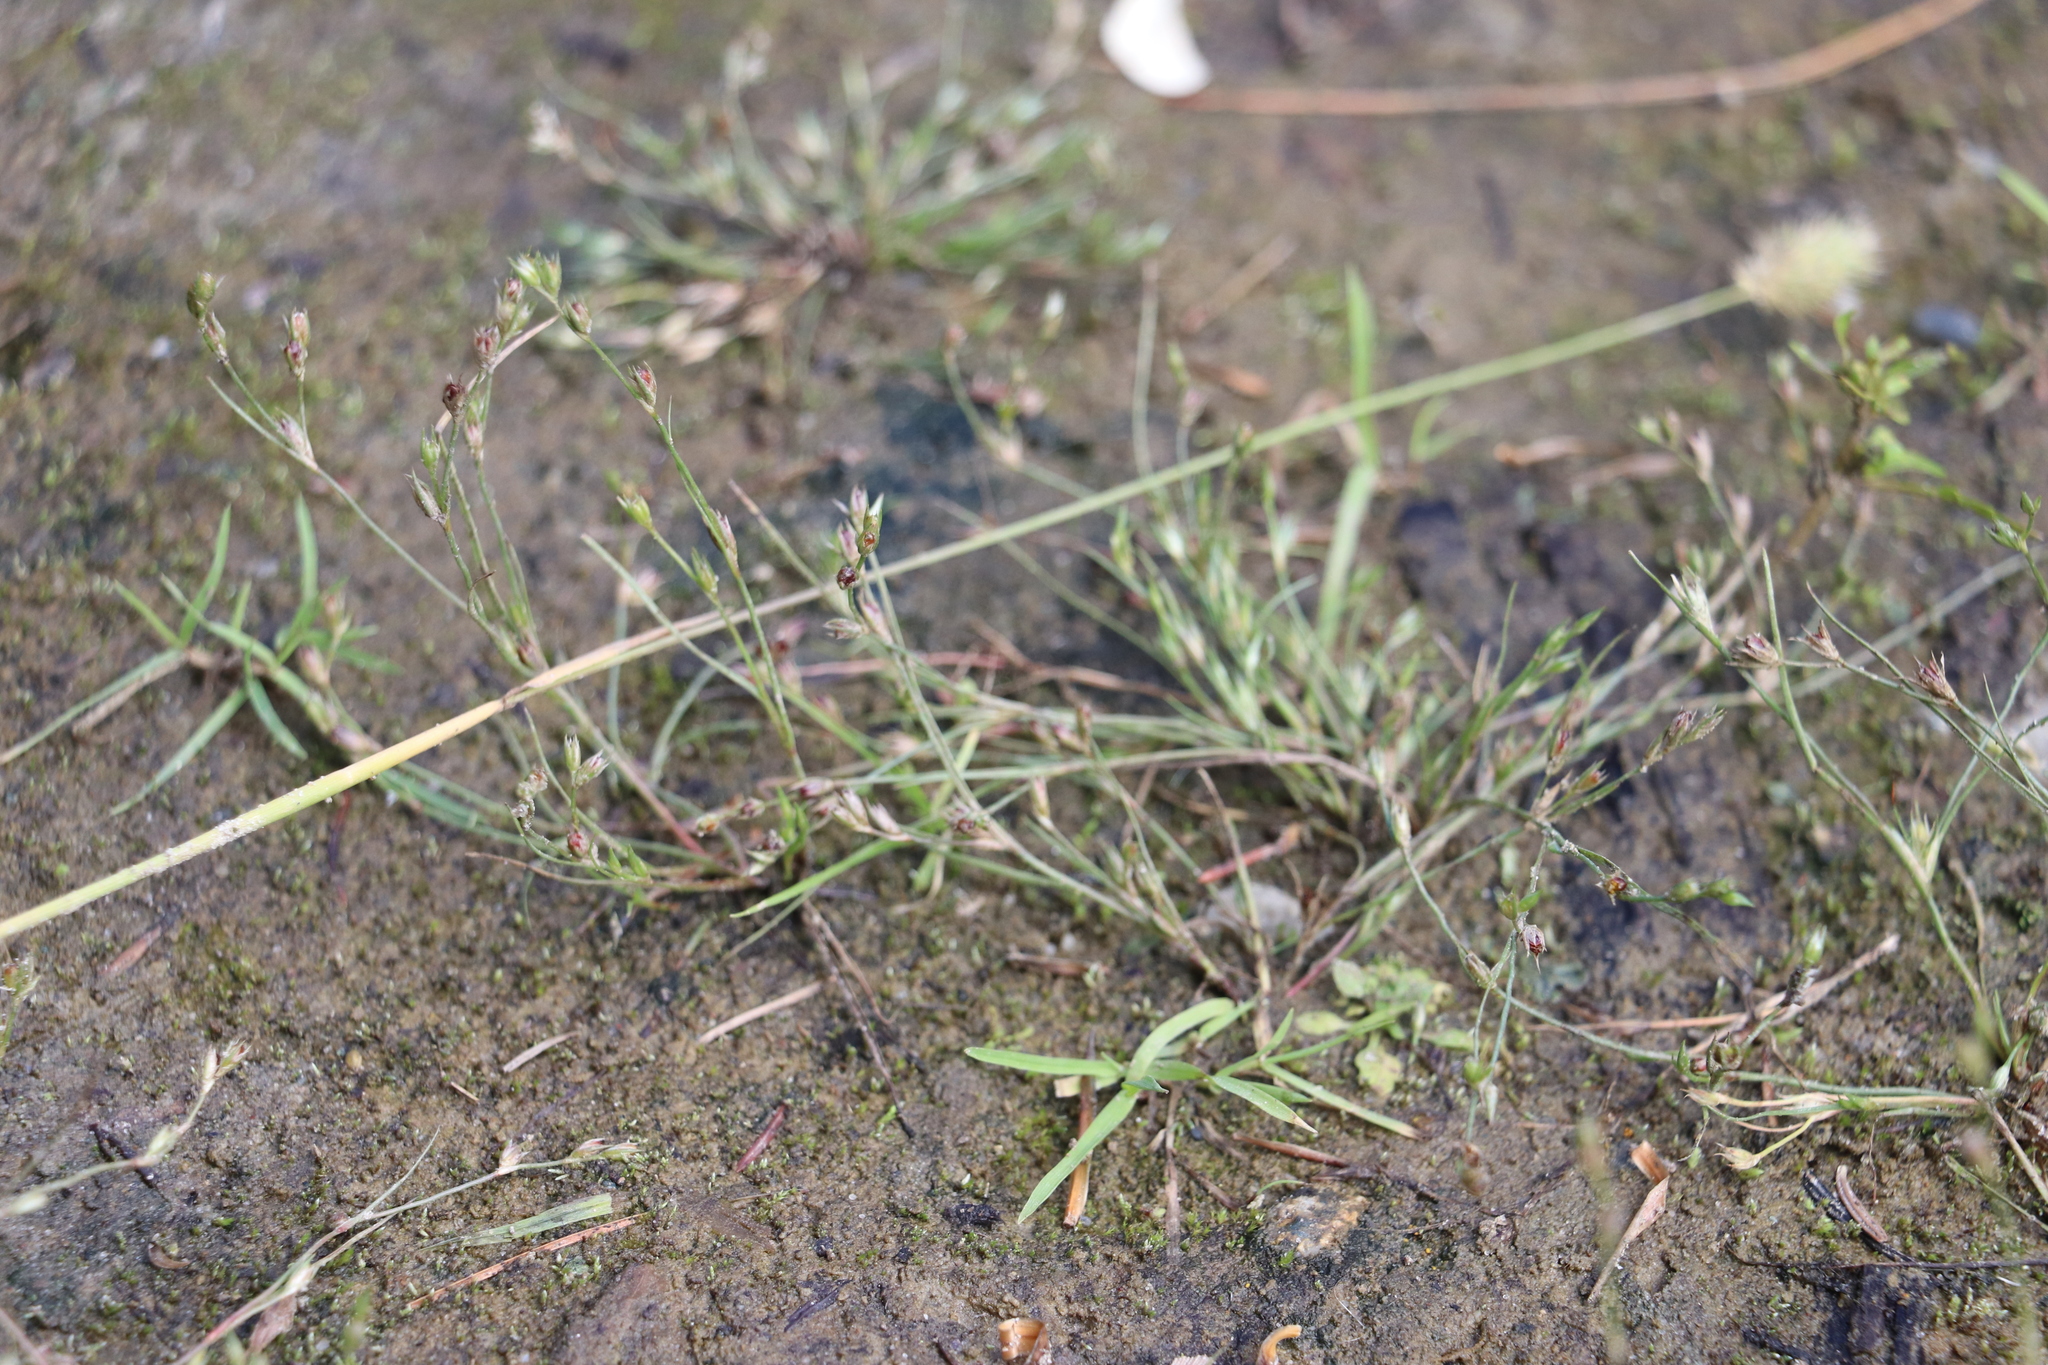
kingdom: Plantae
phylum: Tracheophyta
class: Liliopsida
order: Poales
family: Juncaceae
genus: Juncus
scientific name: Juncus bufonius
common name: Toad rush
